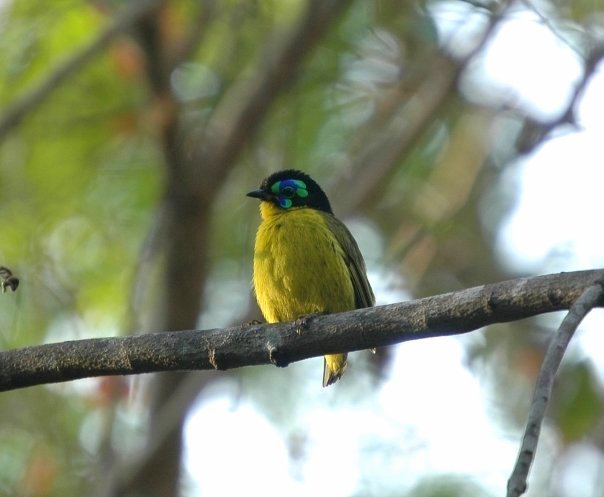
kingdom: Animalia
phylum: Chordata
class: Aves
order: Passeriformes
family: Philepittidae
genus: Philepitta
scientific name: Philepitta schlegeli
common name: Schlegel's asity
